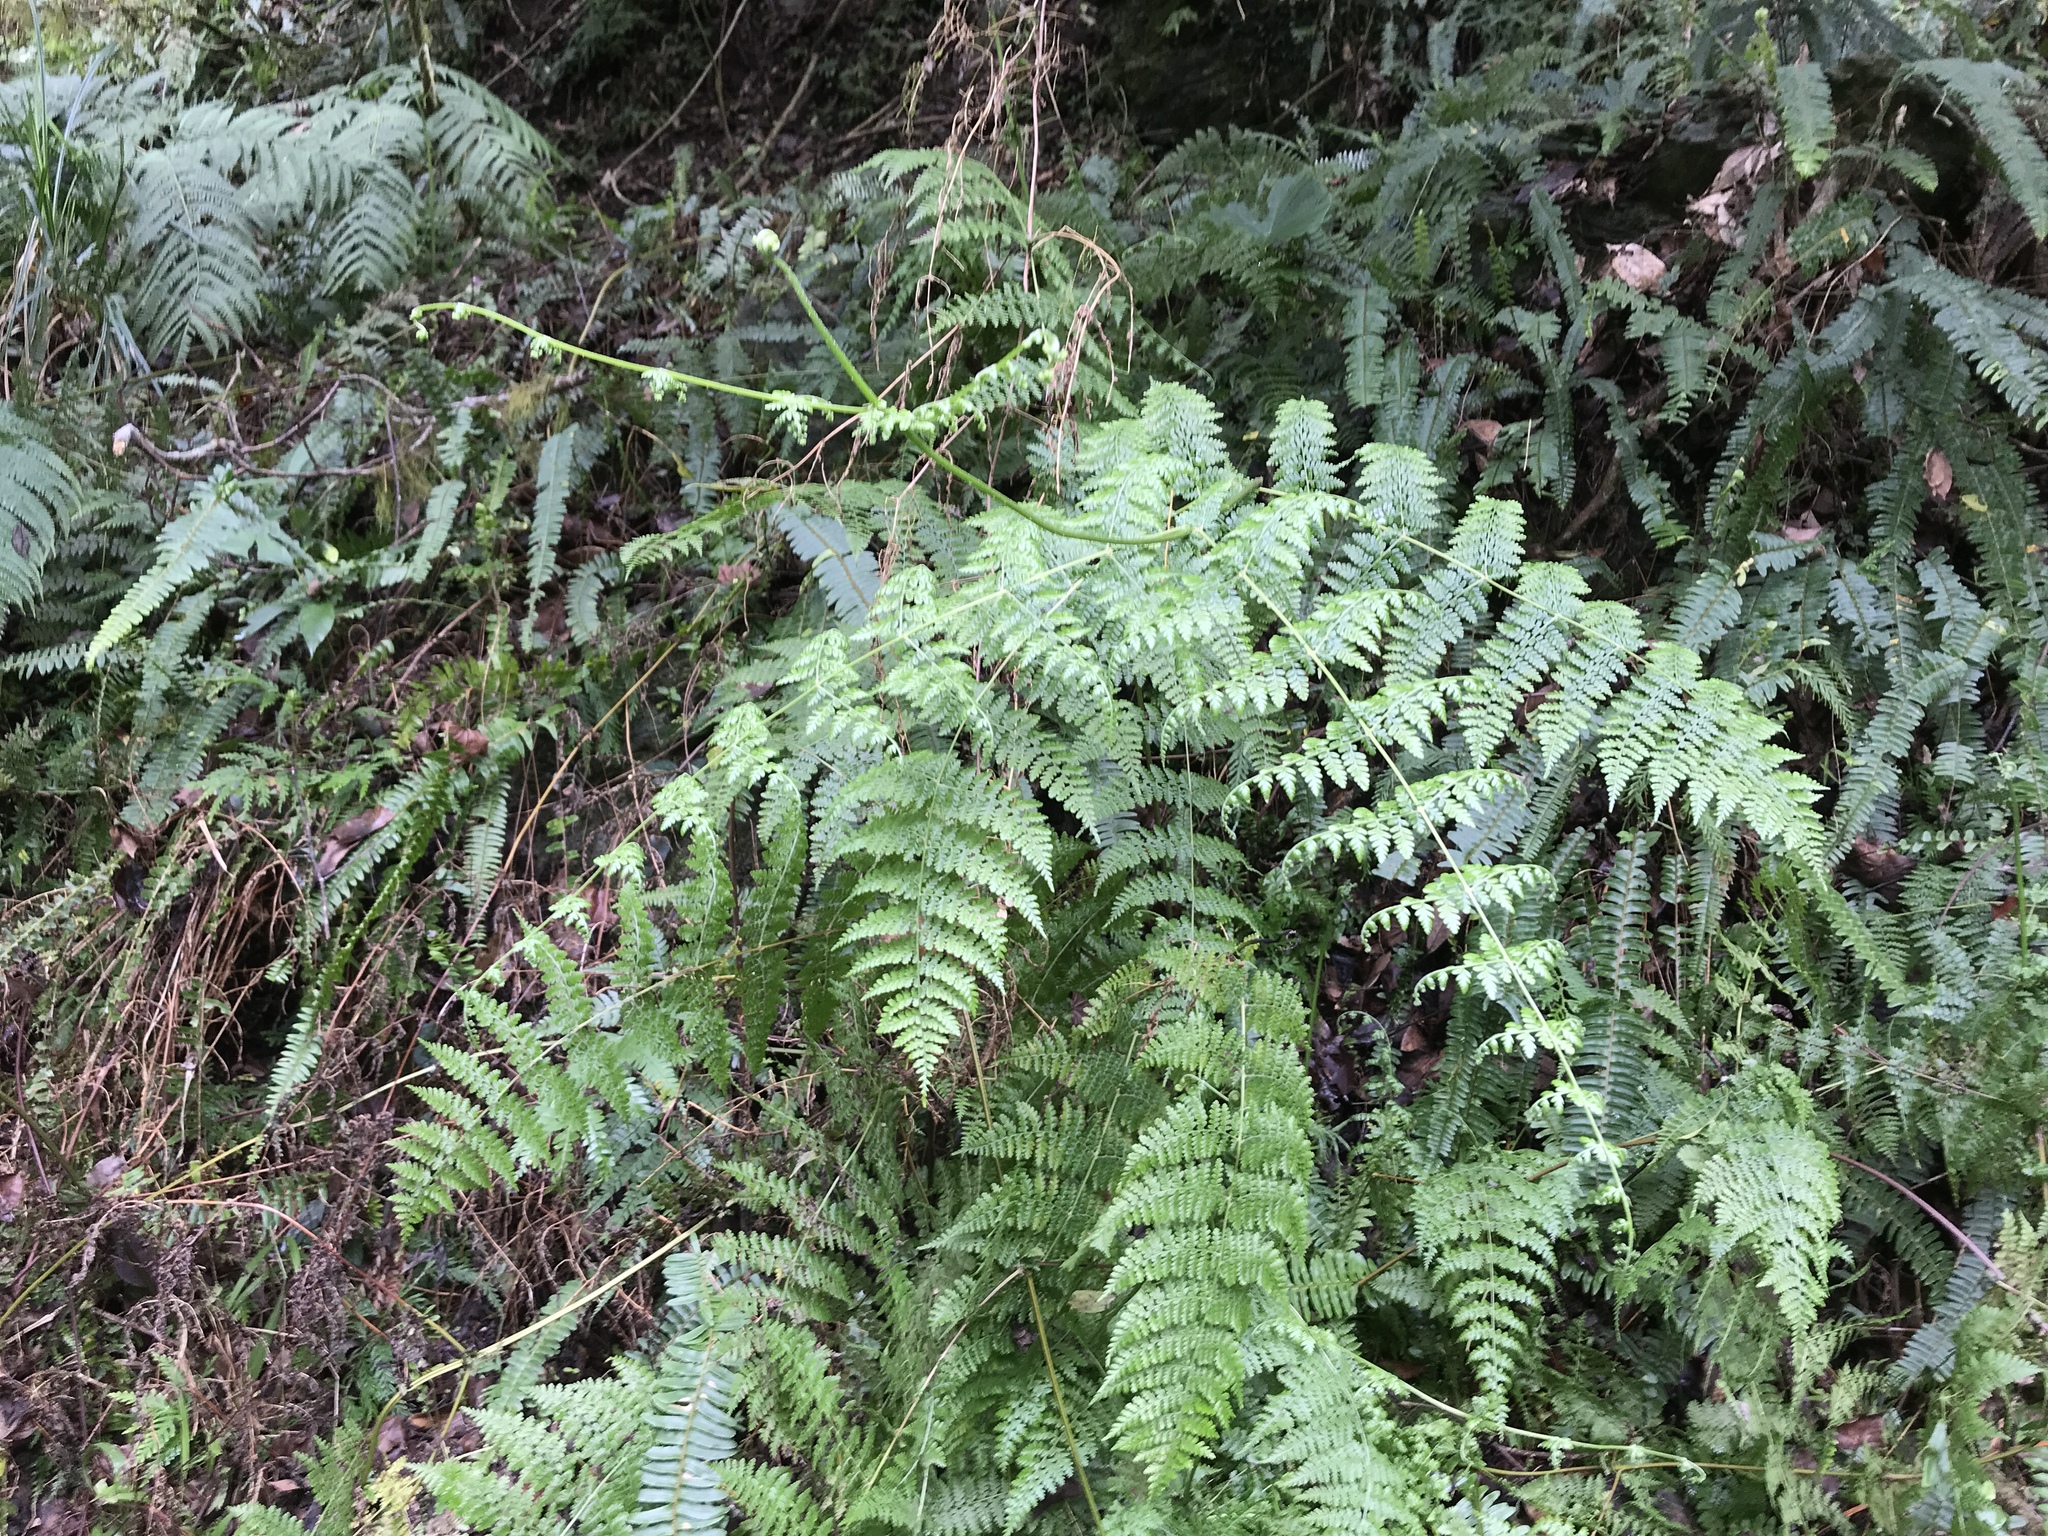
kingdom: Plantae
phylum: Tracheophyta
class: Polypodiopsida
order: Polypodiales
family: Dennstaedtiaceae
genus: Dennstaedtia
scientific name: Dennstaedtia scandens
